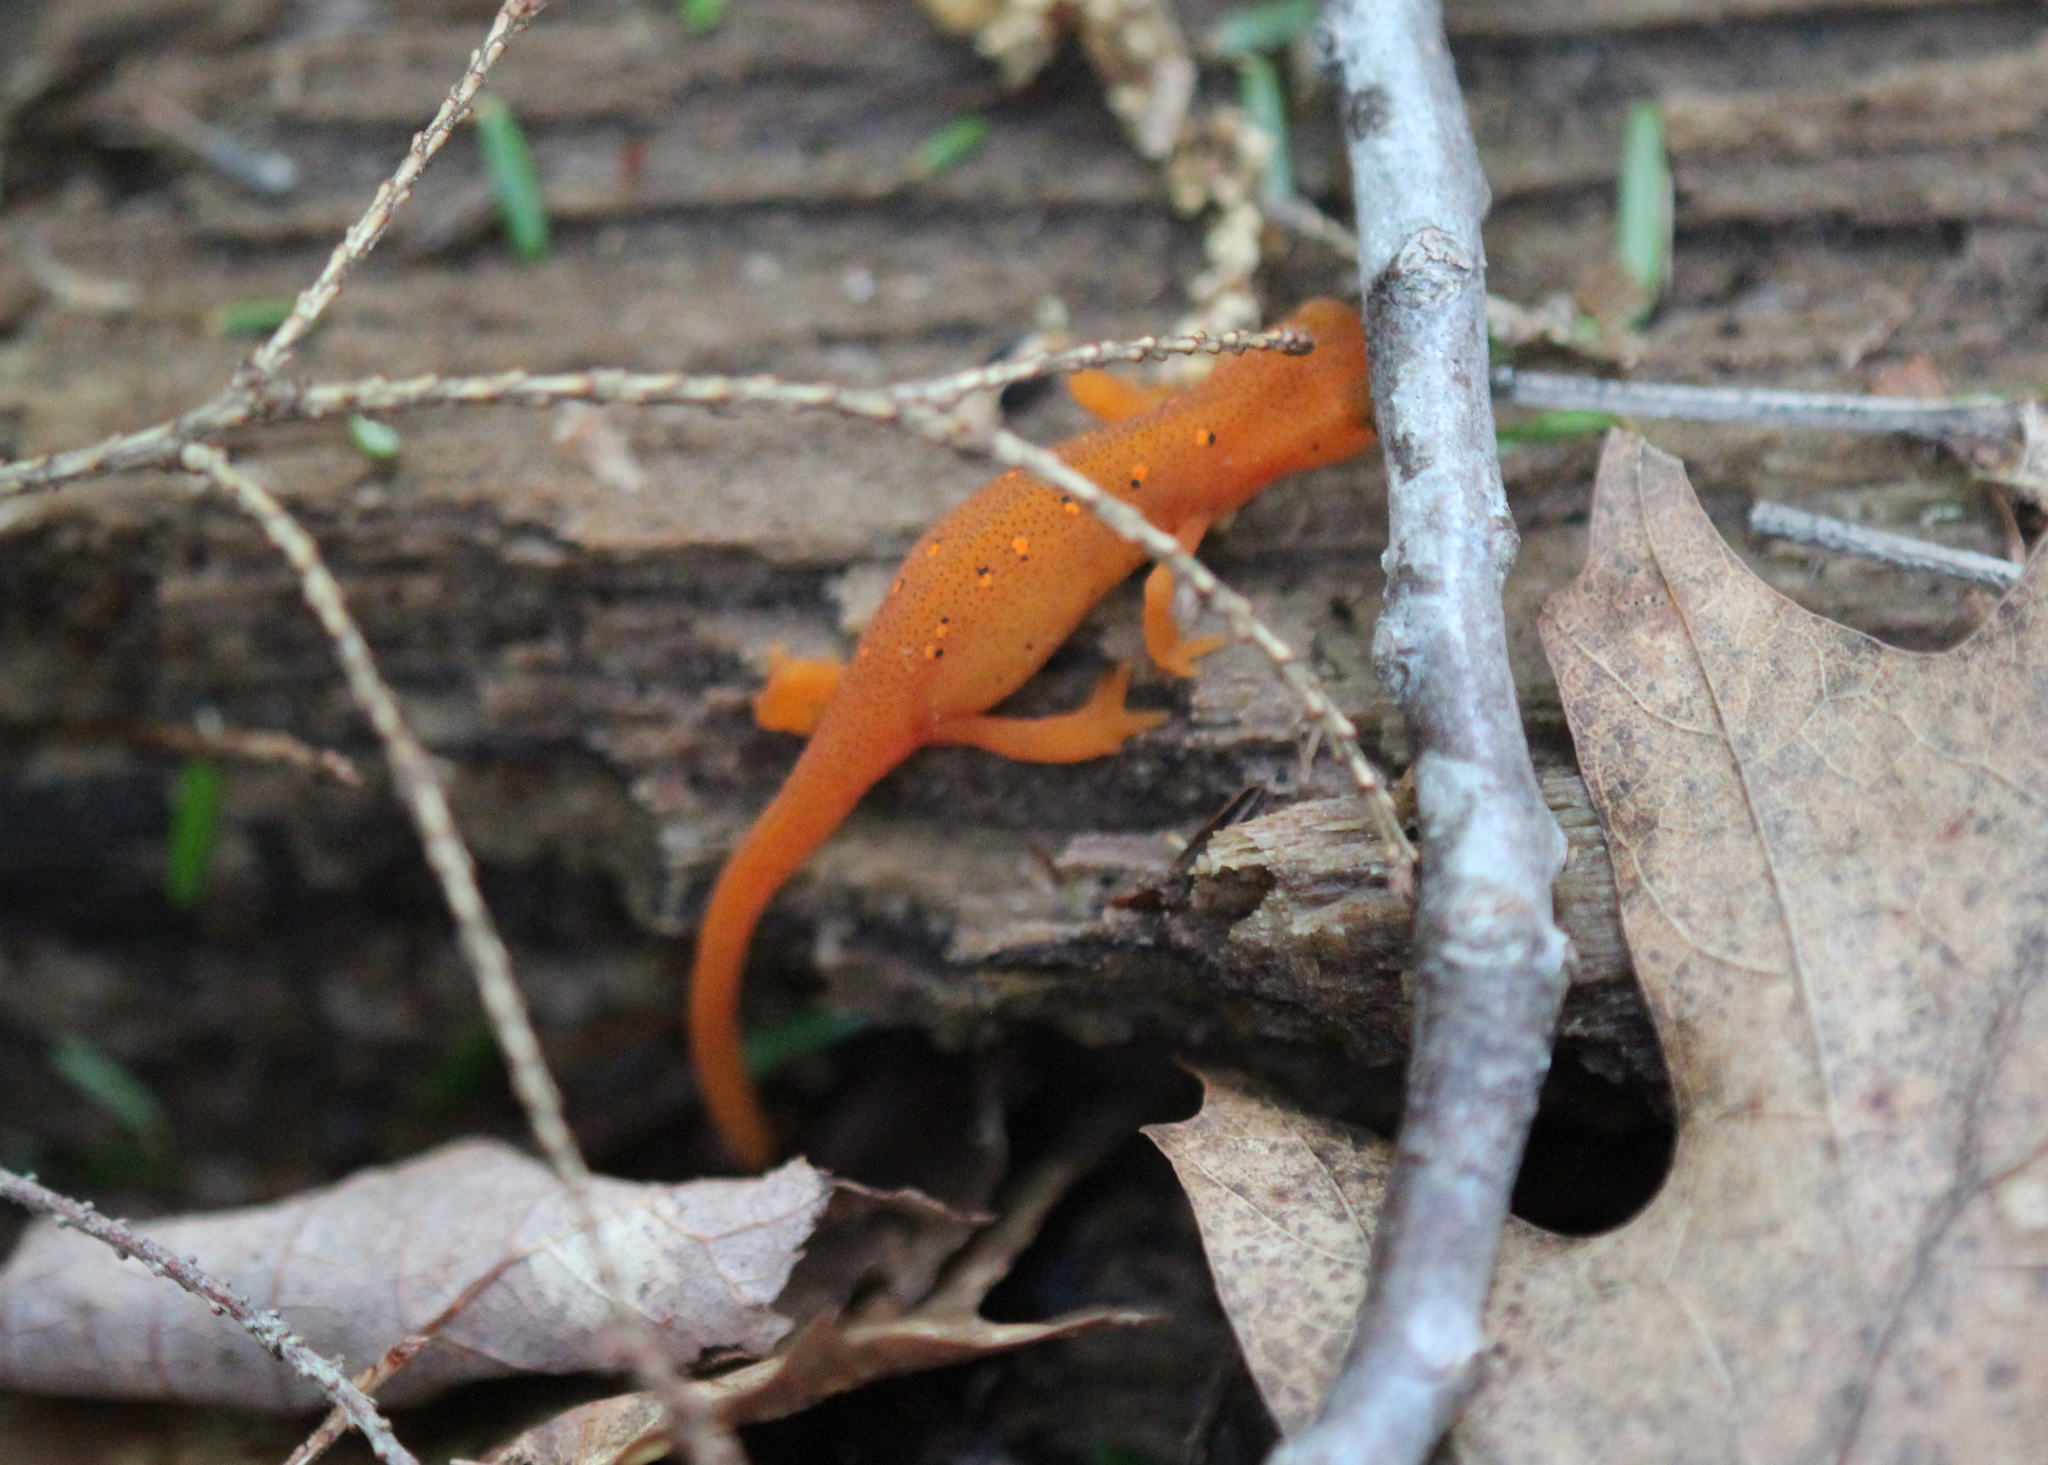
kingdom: Animalia
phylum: Chordata
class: Amphibia
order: Caudata
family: Salamandridae
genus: Notophthalmus
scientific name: Notophthalmus viridescens
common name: Eastern newt
